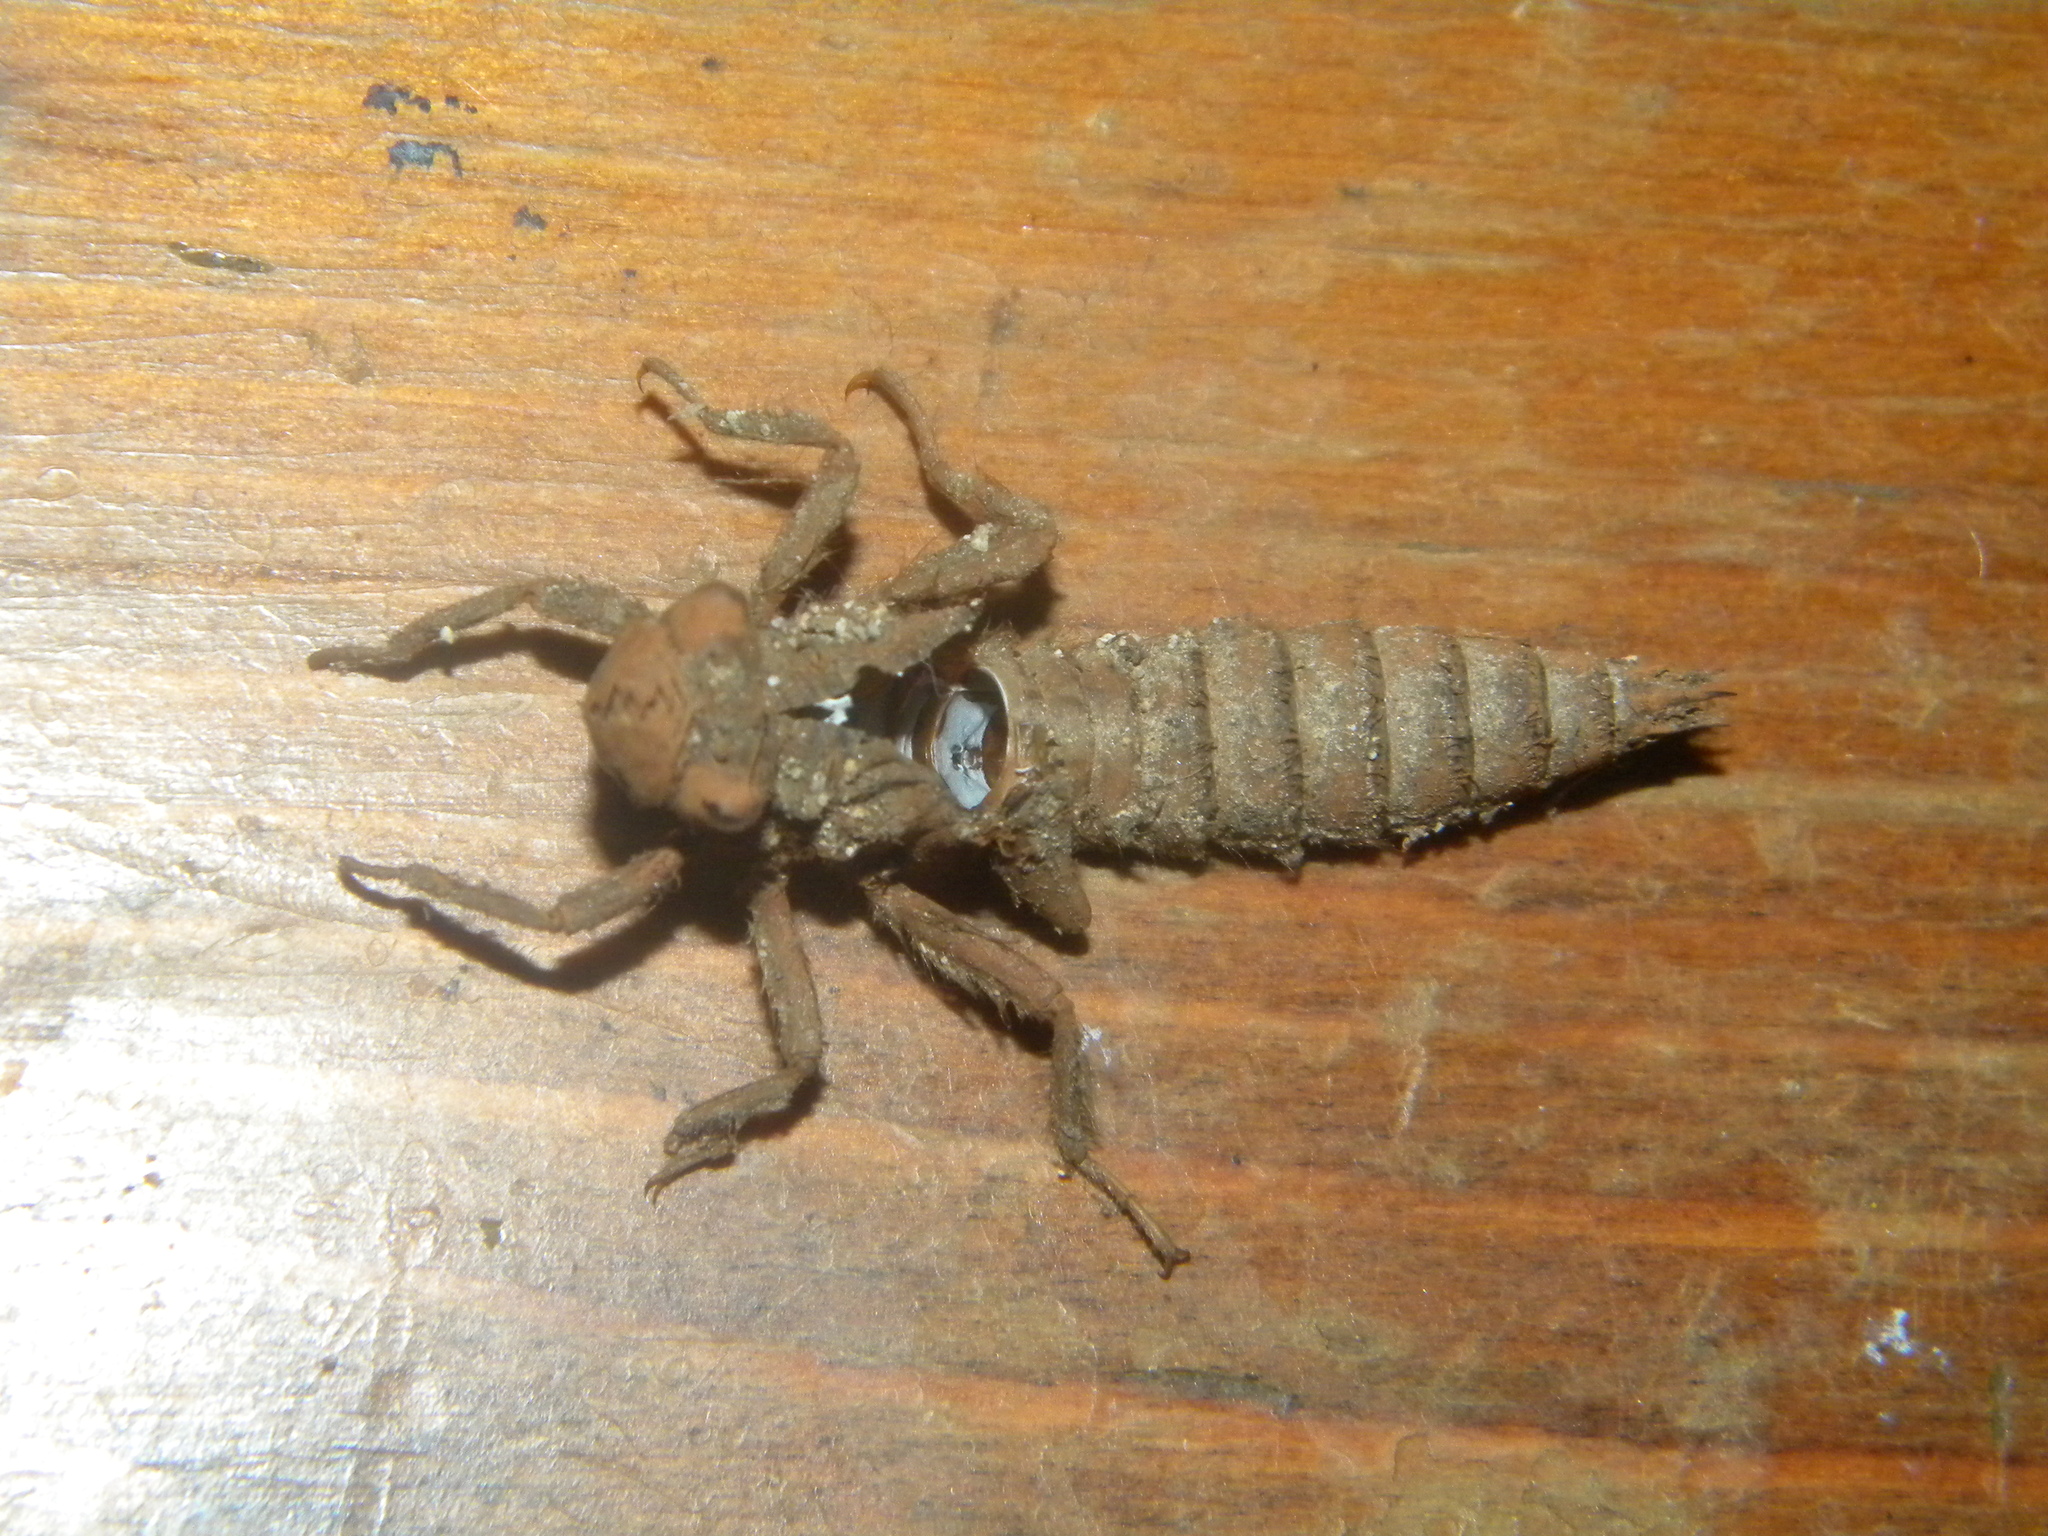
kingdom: Animalia
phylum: Arthropoda
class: Insecta
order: Odonata
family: Cordulegastridae
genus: Cordulegaster
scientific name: Cordulegaster
